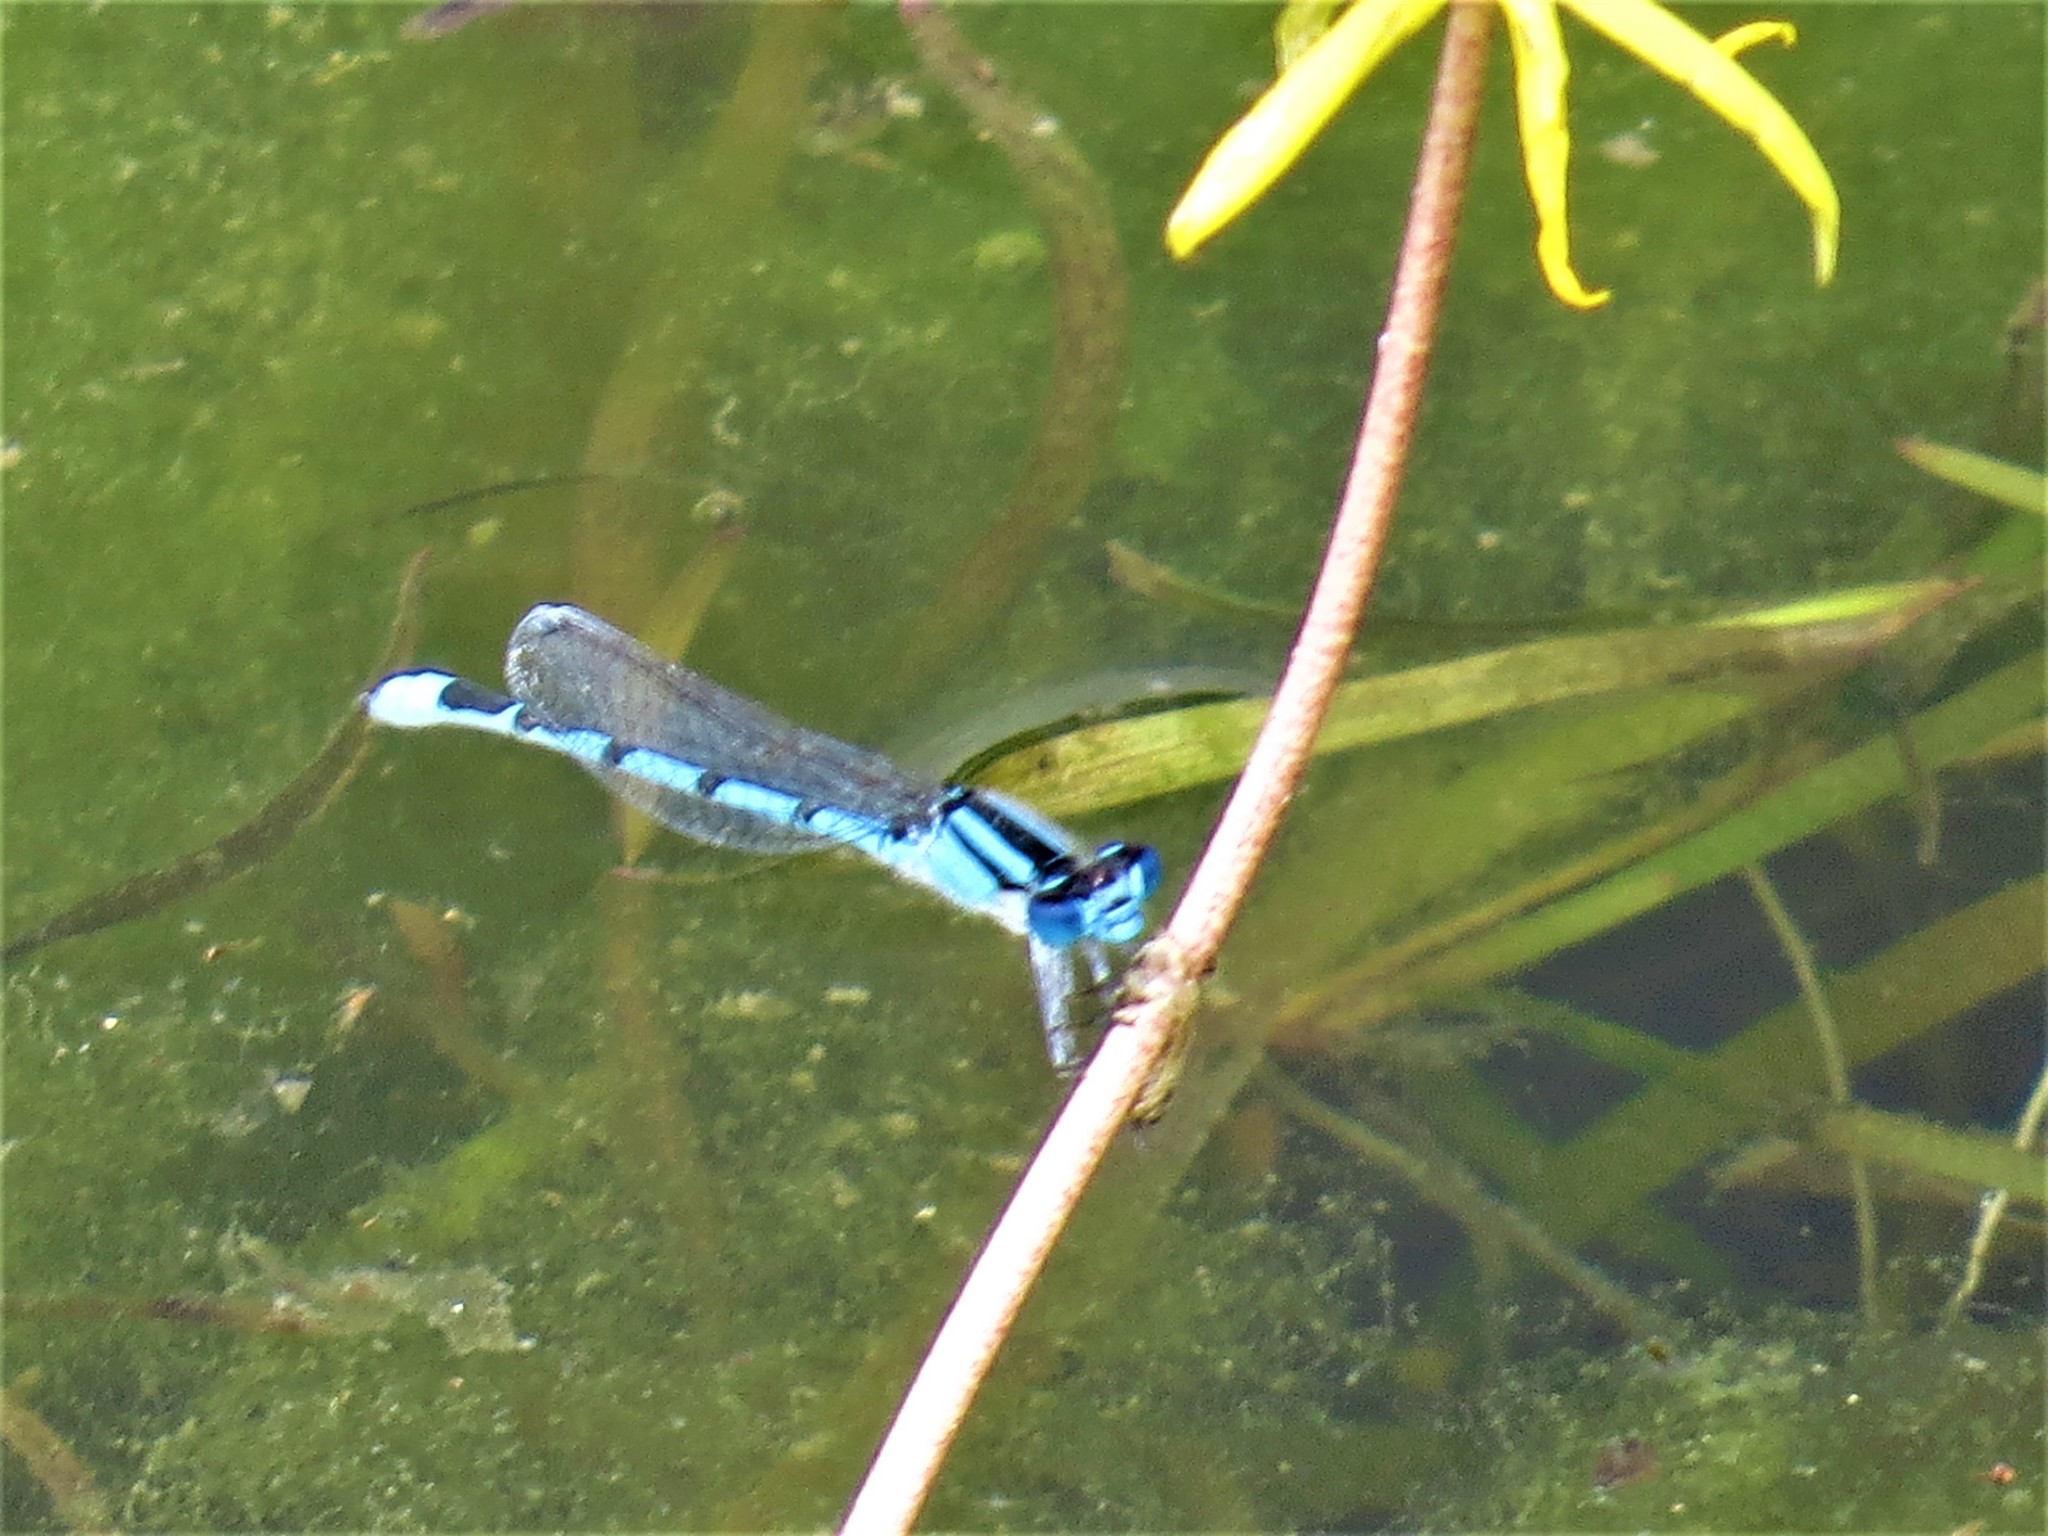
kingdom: Animalia
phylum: Arthropoda
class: Insecta
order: Odonata
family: Coenagrionidae
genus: Enallagma
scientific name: Enallagma civile
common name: Damselfly
